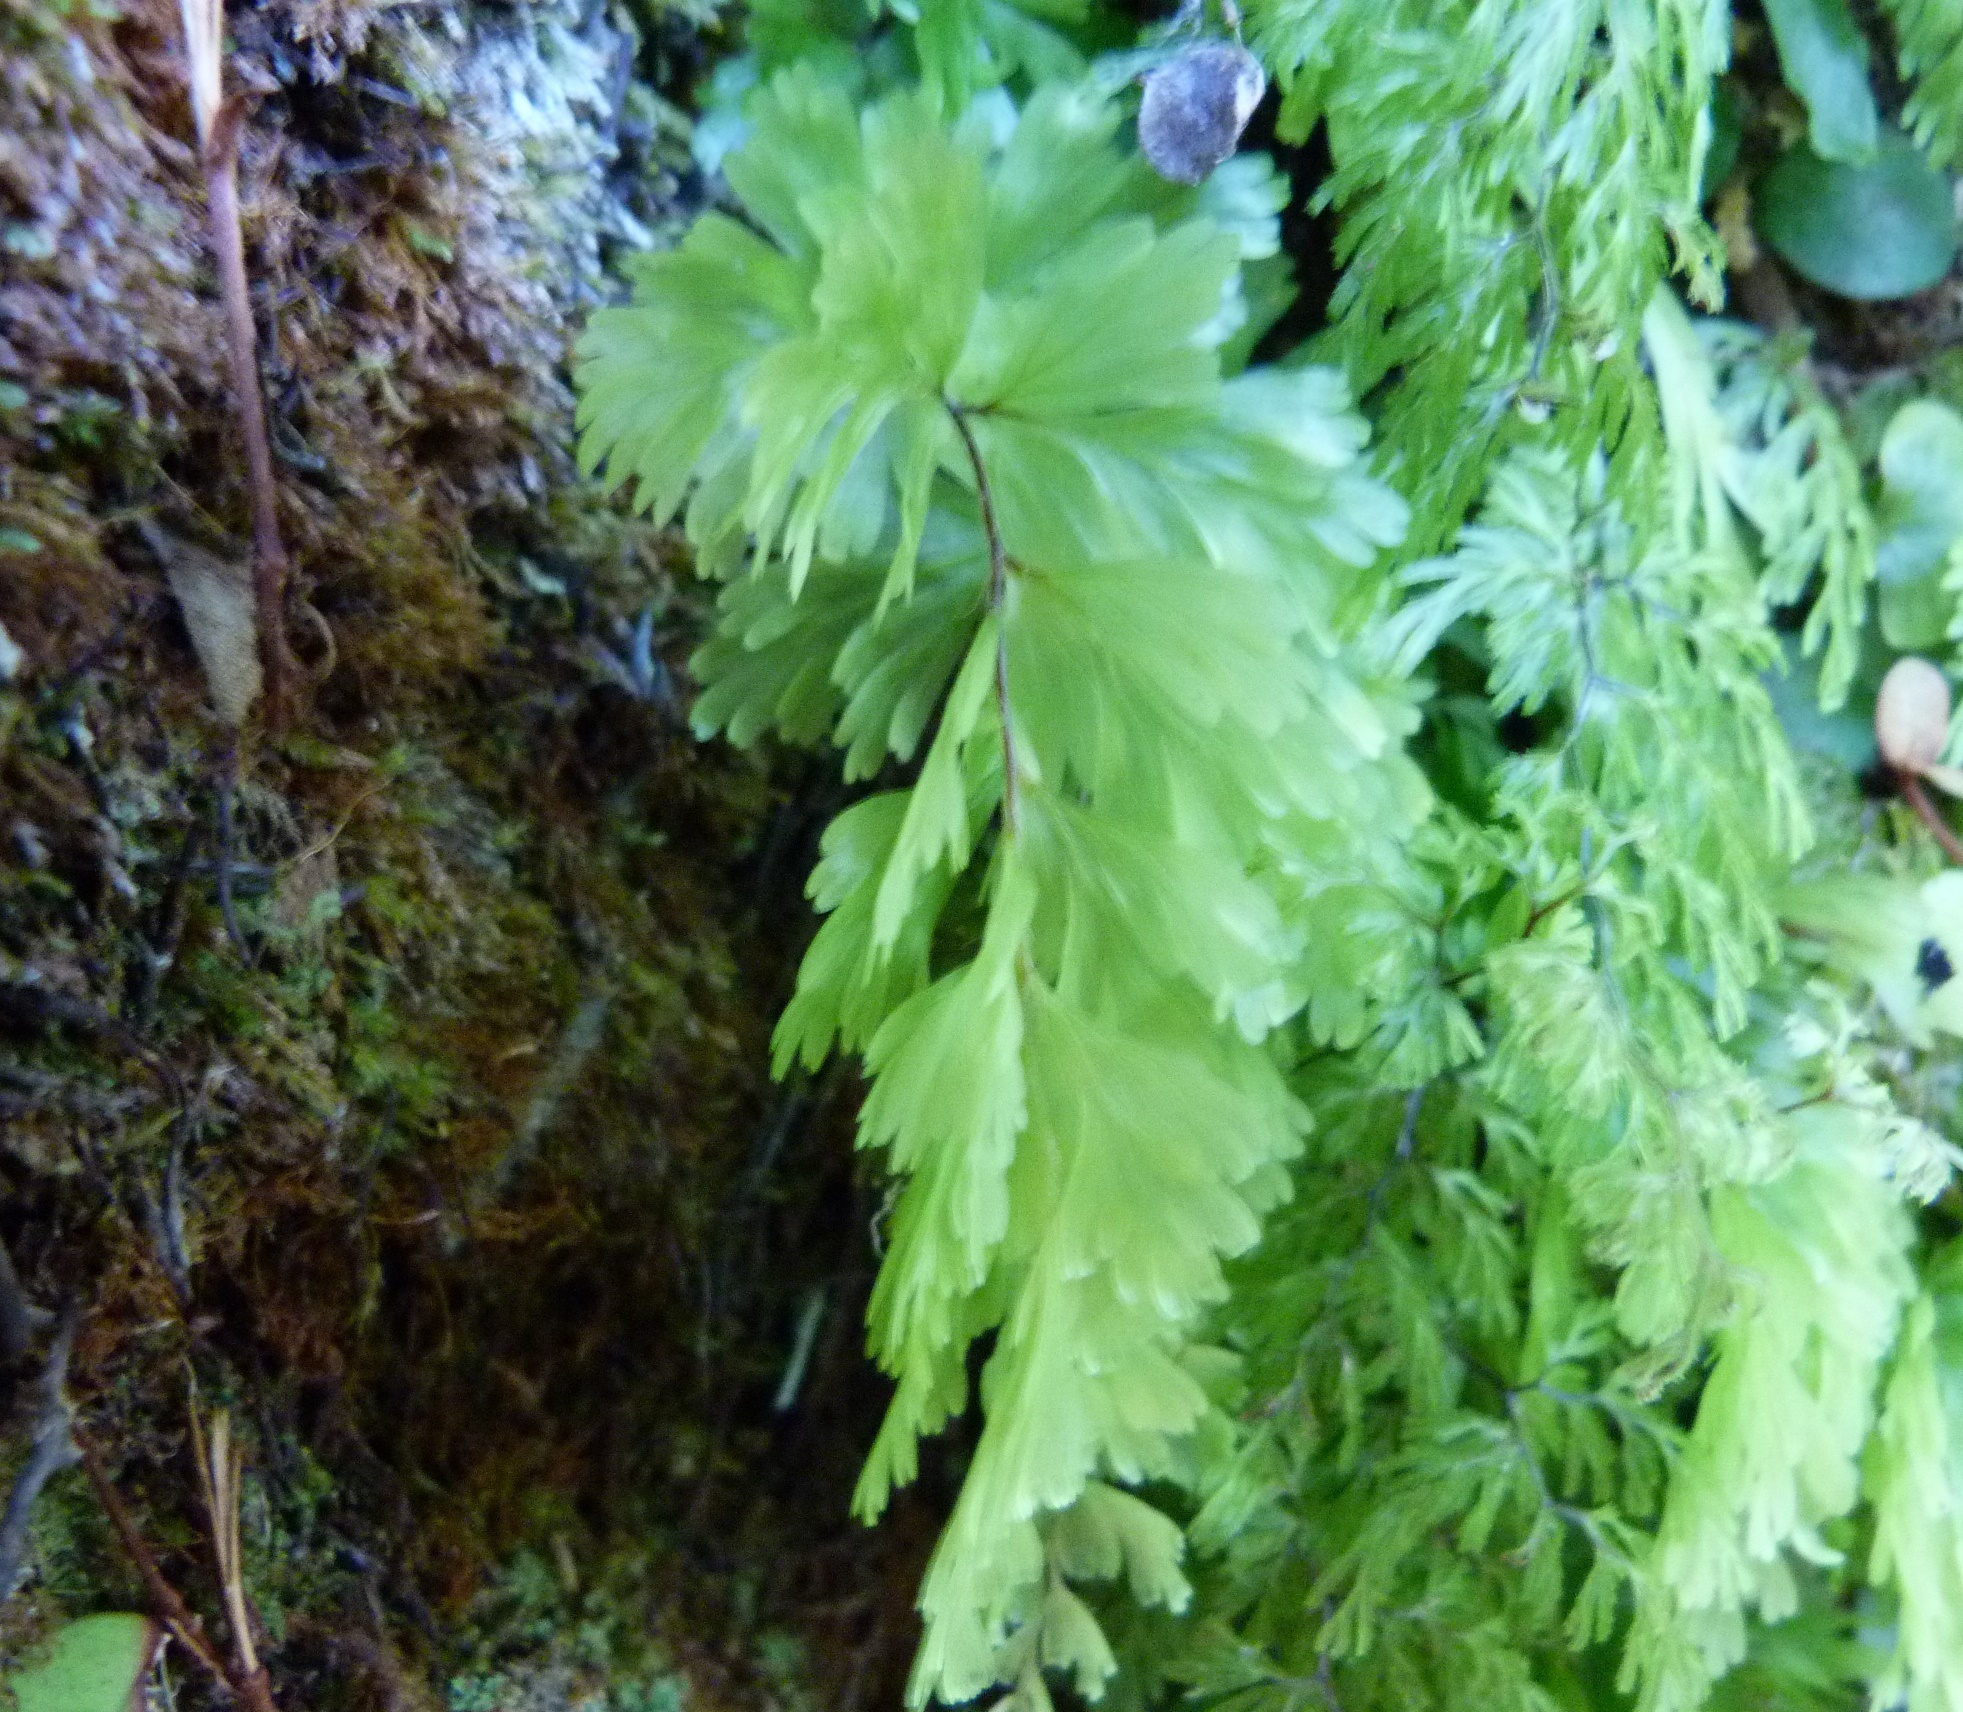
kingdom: Plantae
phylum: Tracheophyta
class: Polypodiopsida
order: Hymenophyllales
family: Hymenophyllaceae
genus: Hymenophyllum
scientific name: Hymenophyllum flabellatum
